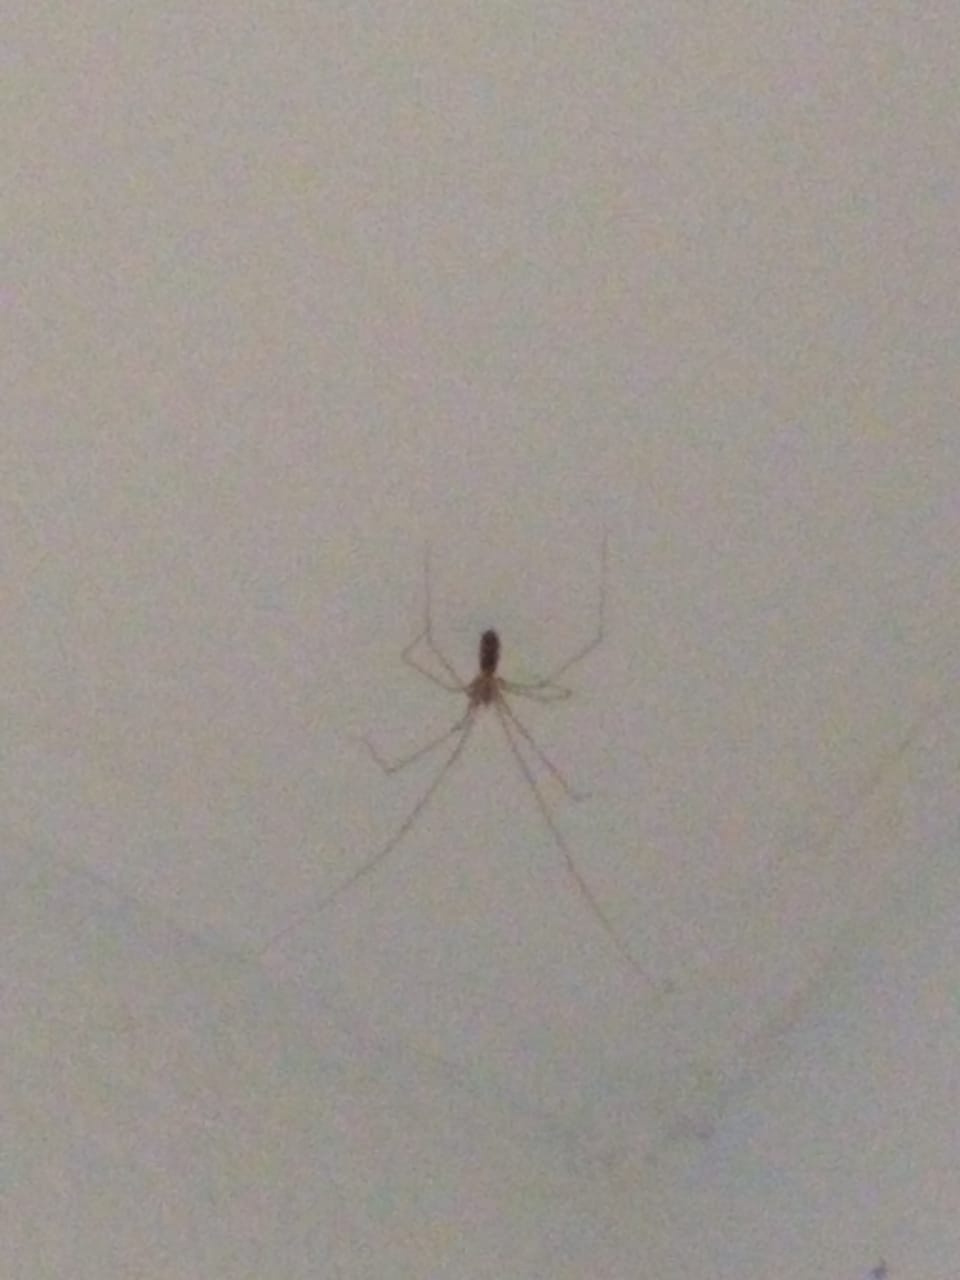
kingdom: Animalia
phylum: Arthropoda
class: Arachnida
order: Araneae
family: Pholcidae
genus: Pholcus
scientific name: Pholcus phalangioides
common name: Longbodied cellar spider
